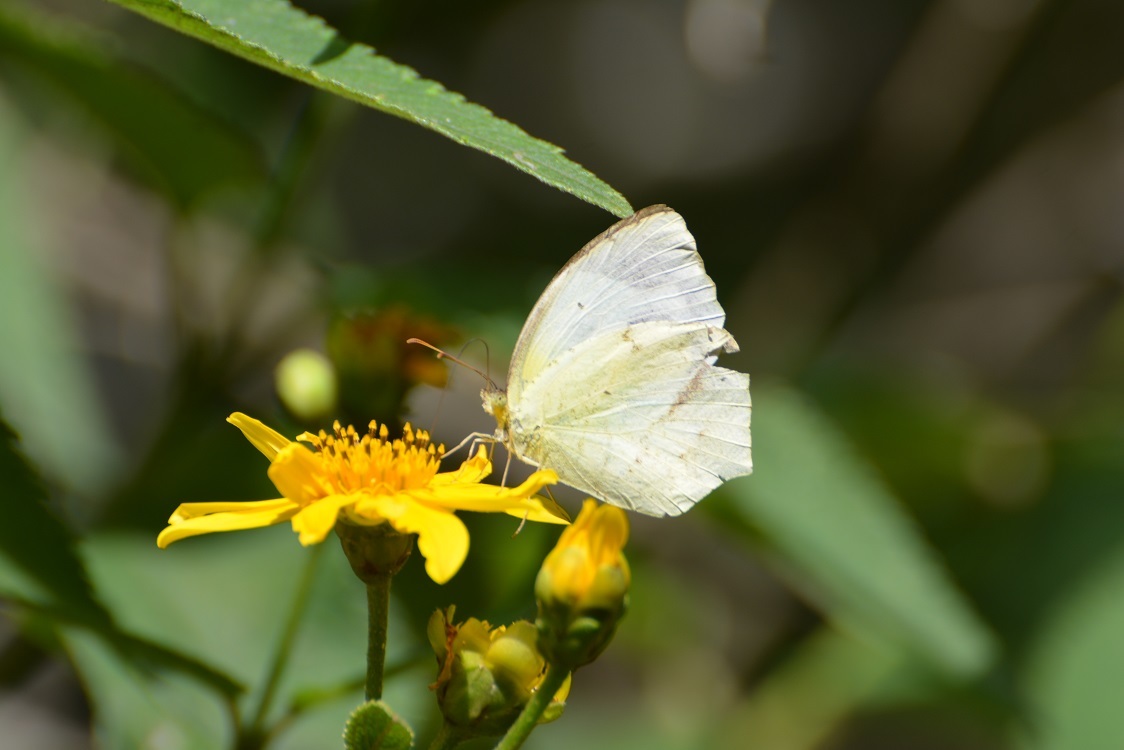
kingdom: Animalia
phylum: Arthropoda
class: Insecta
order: Lepidoptera
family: Pieridae
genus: Abaeis
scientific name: Abaeis mexicana
